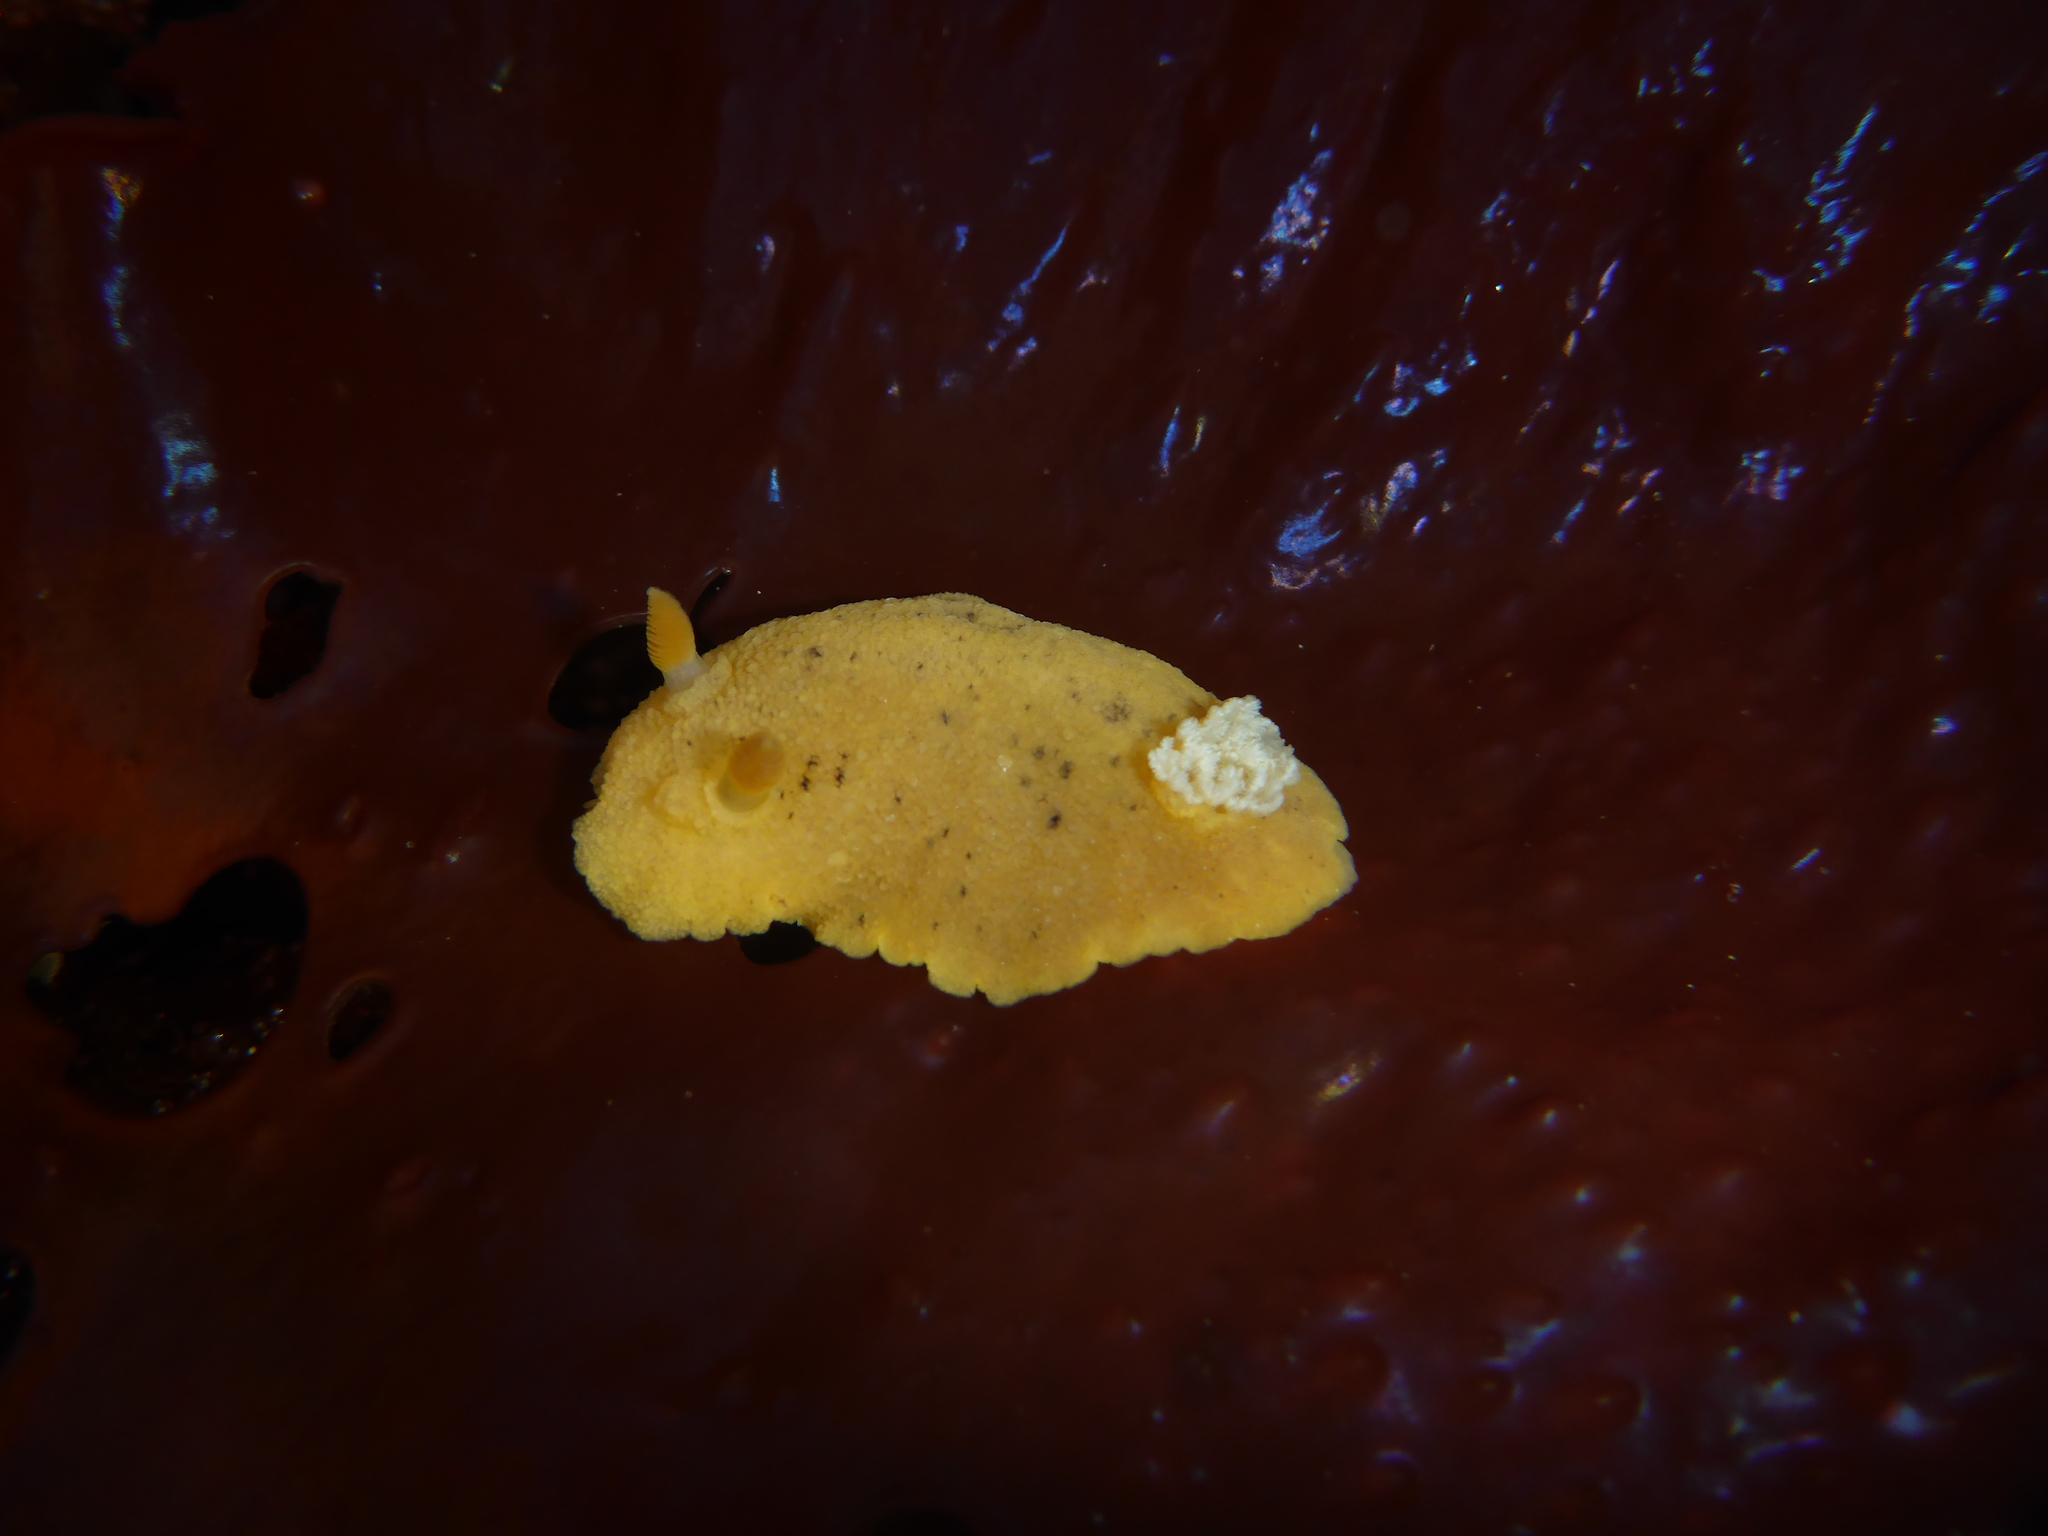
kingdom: Animalia
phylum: Mollusca
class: Gastropoda
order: Nudibranchia
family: Discodorididae
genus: Geitodoris
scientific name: Geitodoris heathi
